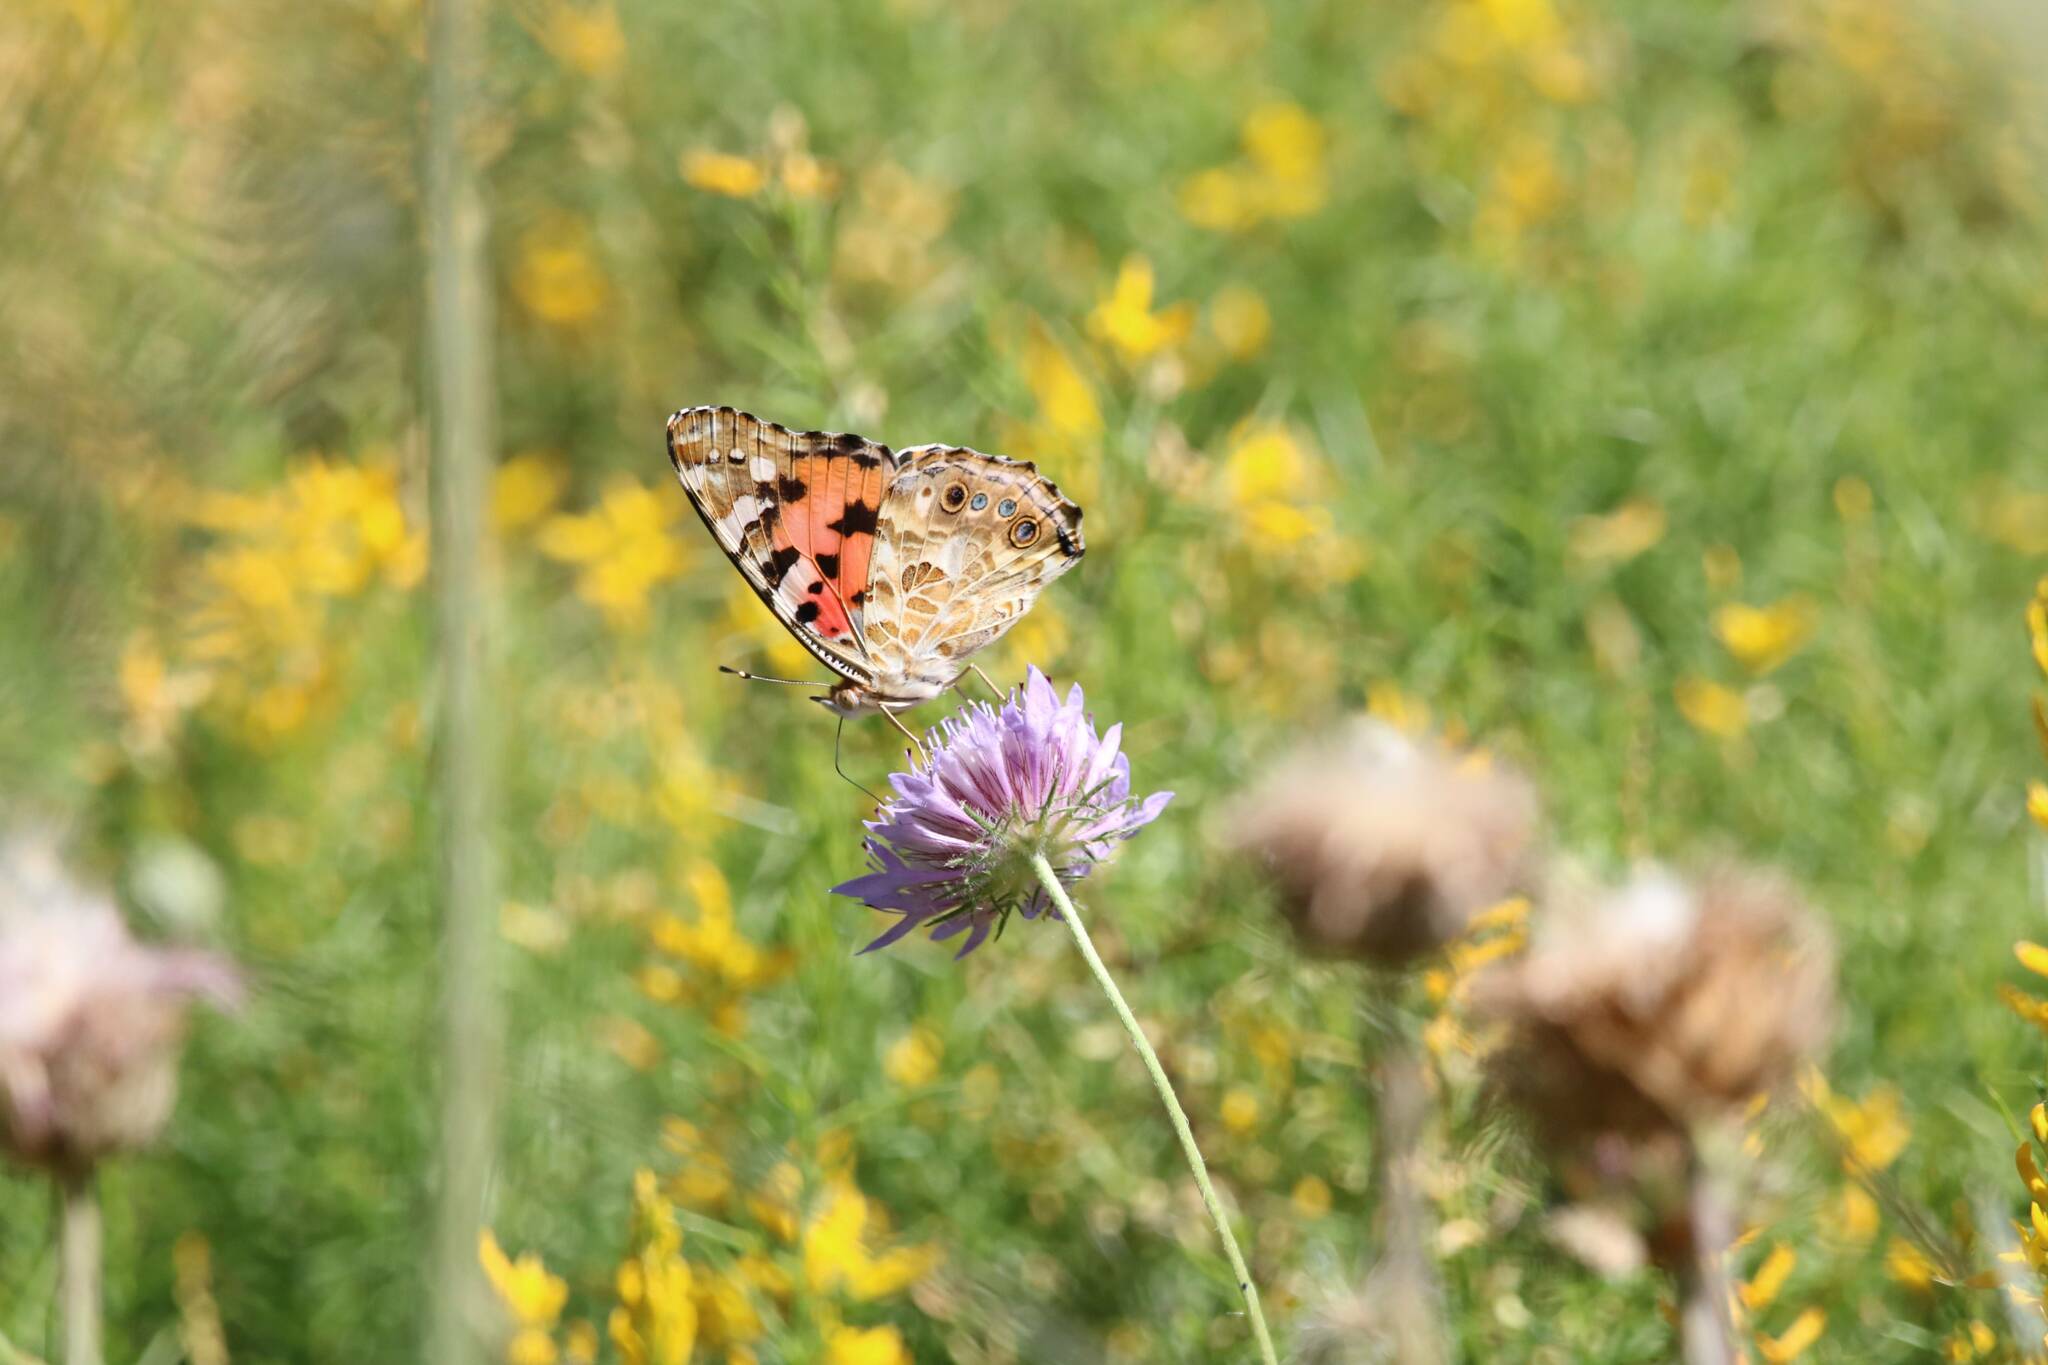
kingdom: Animalia
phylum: Arthropoda
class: Insecta
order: Lepidoptera
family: Nymphalidae
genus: Vanessa
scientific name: Vanessa cardui
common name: Painted lady
